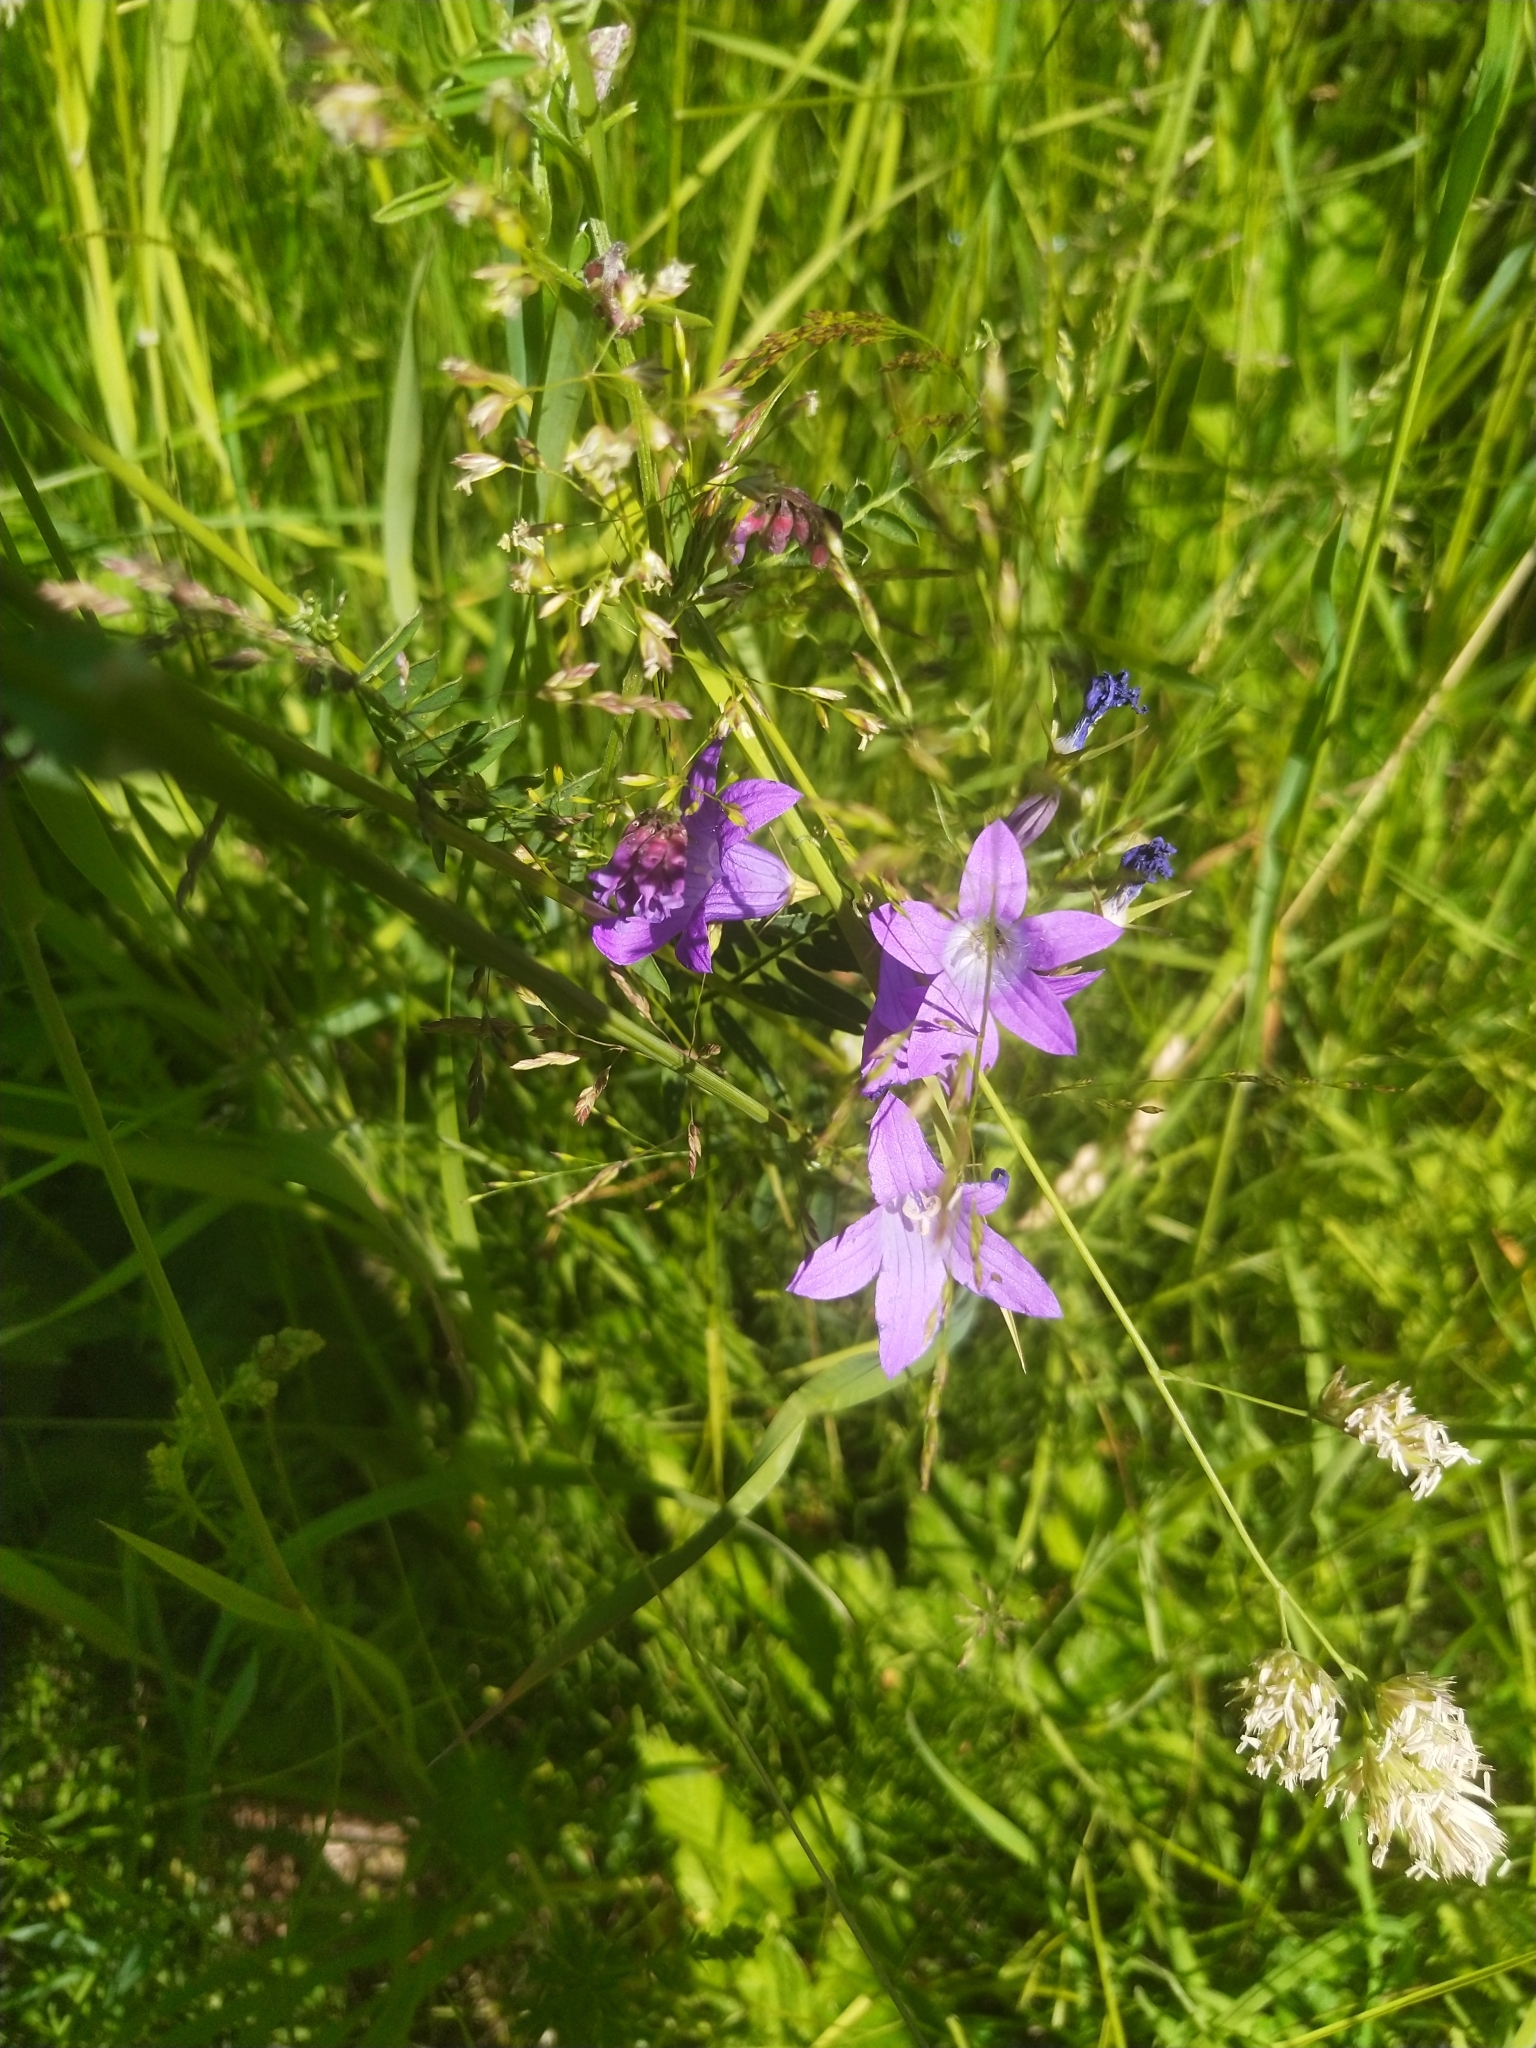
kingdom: Plantae
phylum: Tracheophyta
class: Magnoliopsida
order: Asterales
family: Campanulaceae
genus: Campanula
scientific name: Campanula patula
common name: Spreading bellflower
